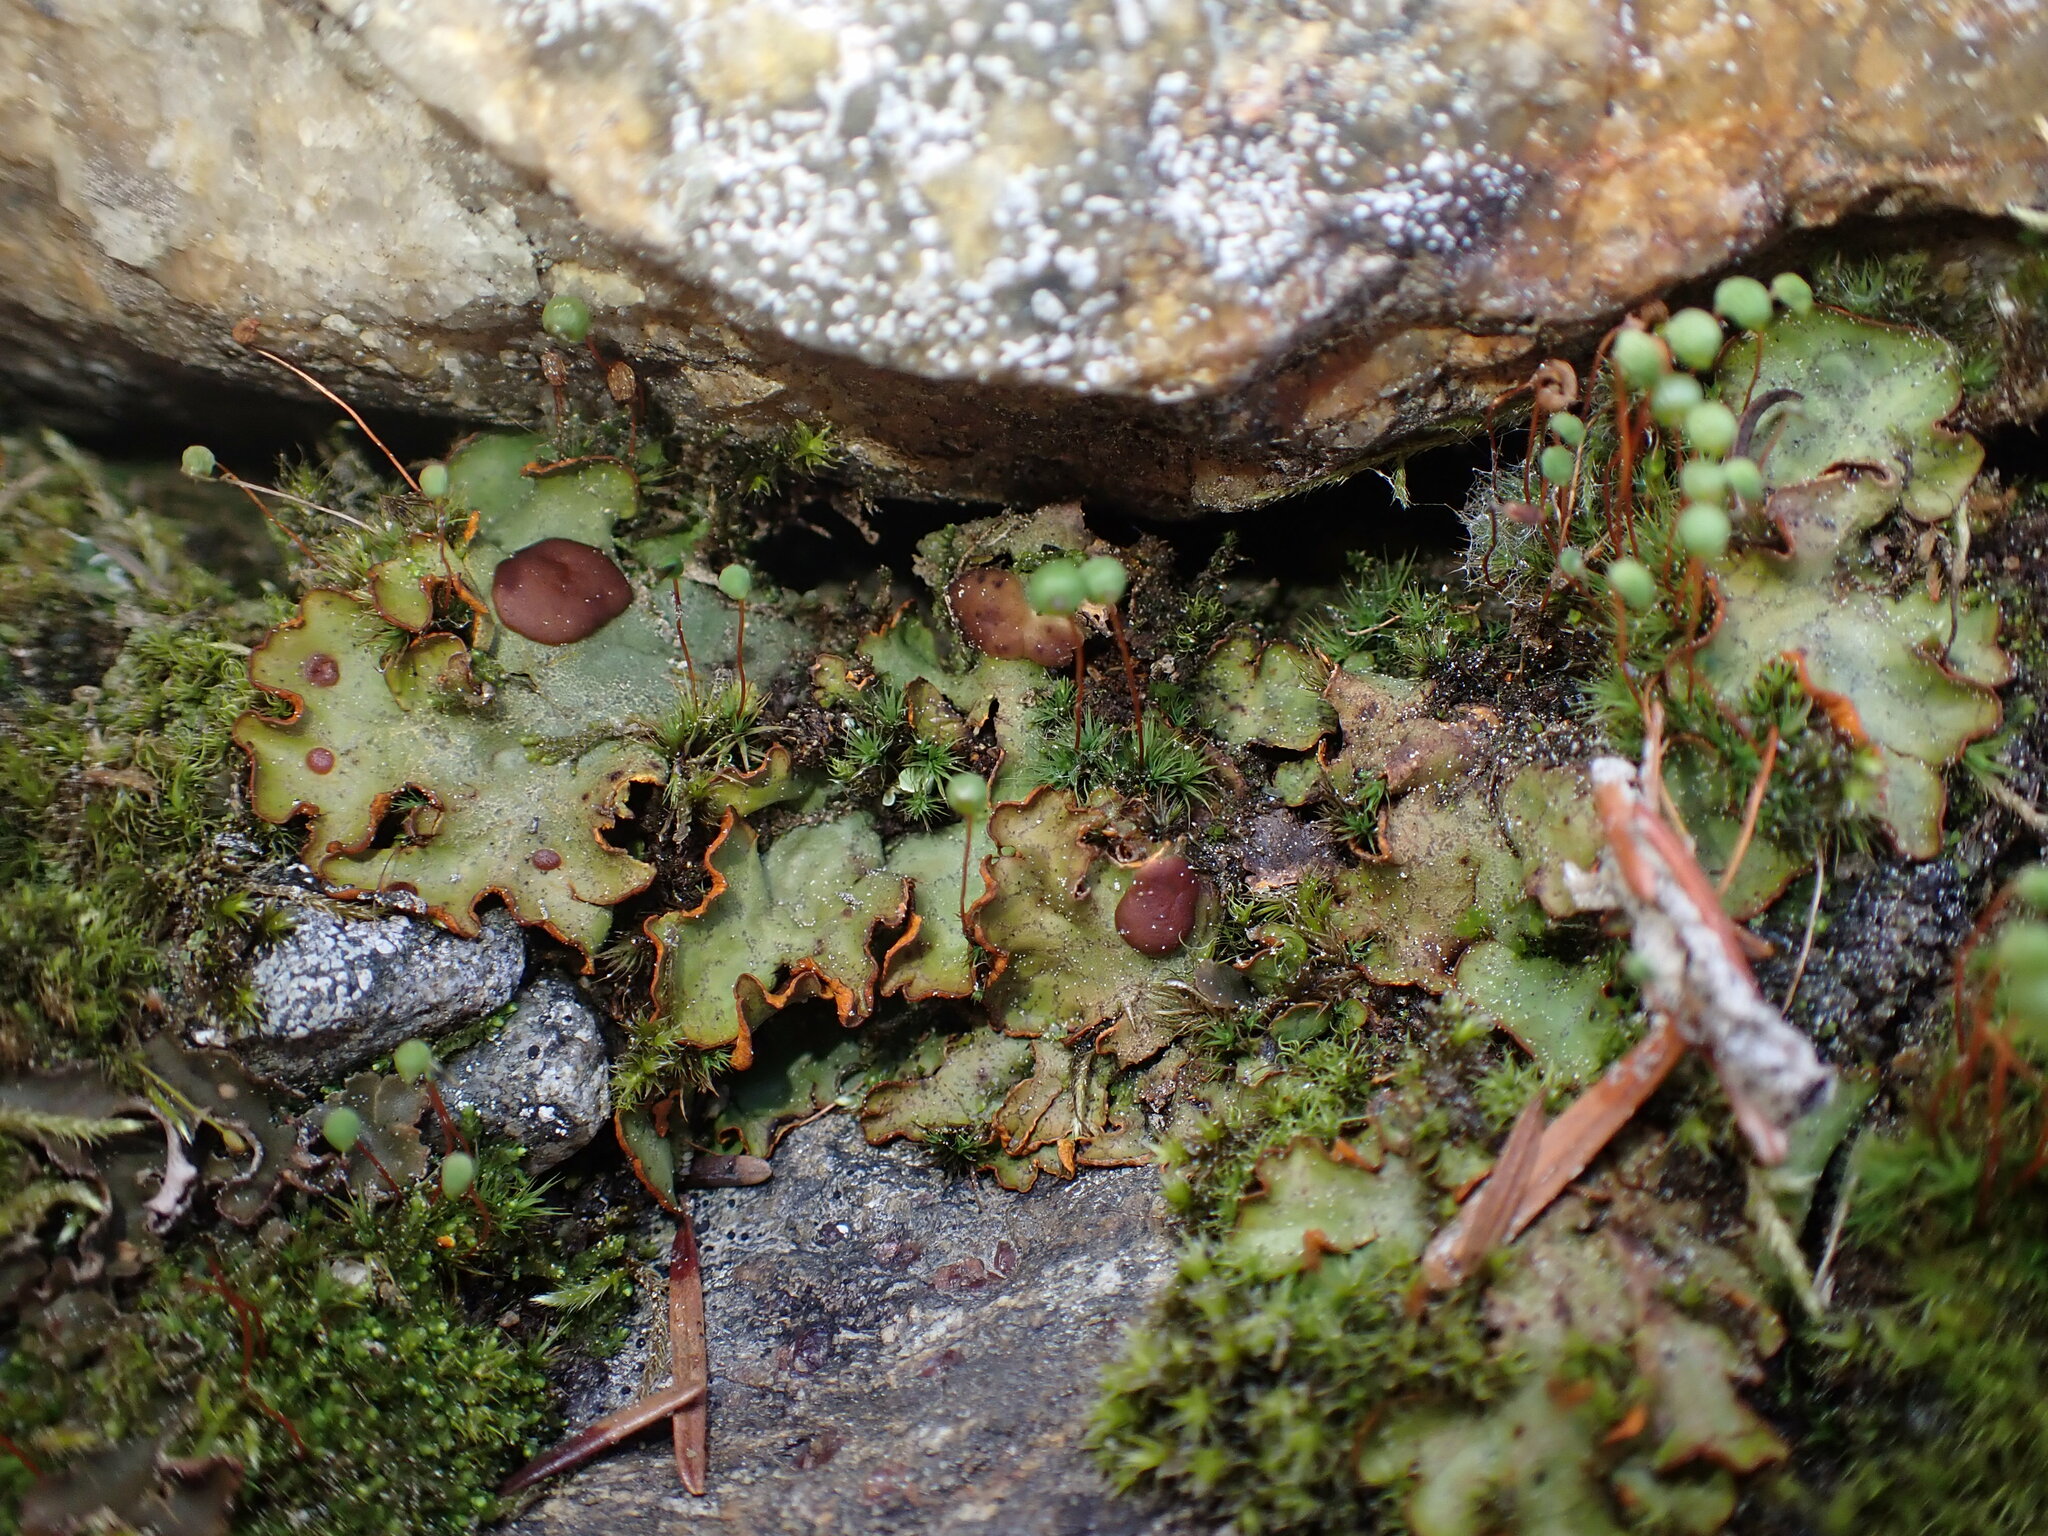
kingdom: Fungi
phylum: Ascomycota
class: Lecanoromycetes
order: Peltigerales
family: Peltigeraceae
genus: Solorina
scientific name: Solorina crocea
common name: Mountain saffron
